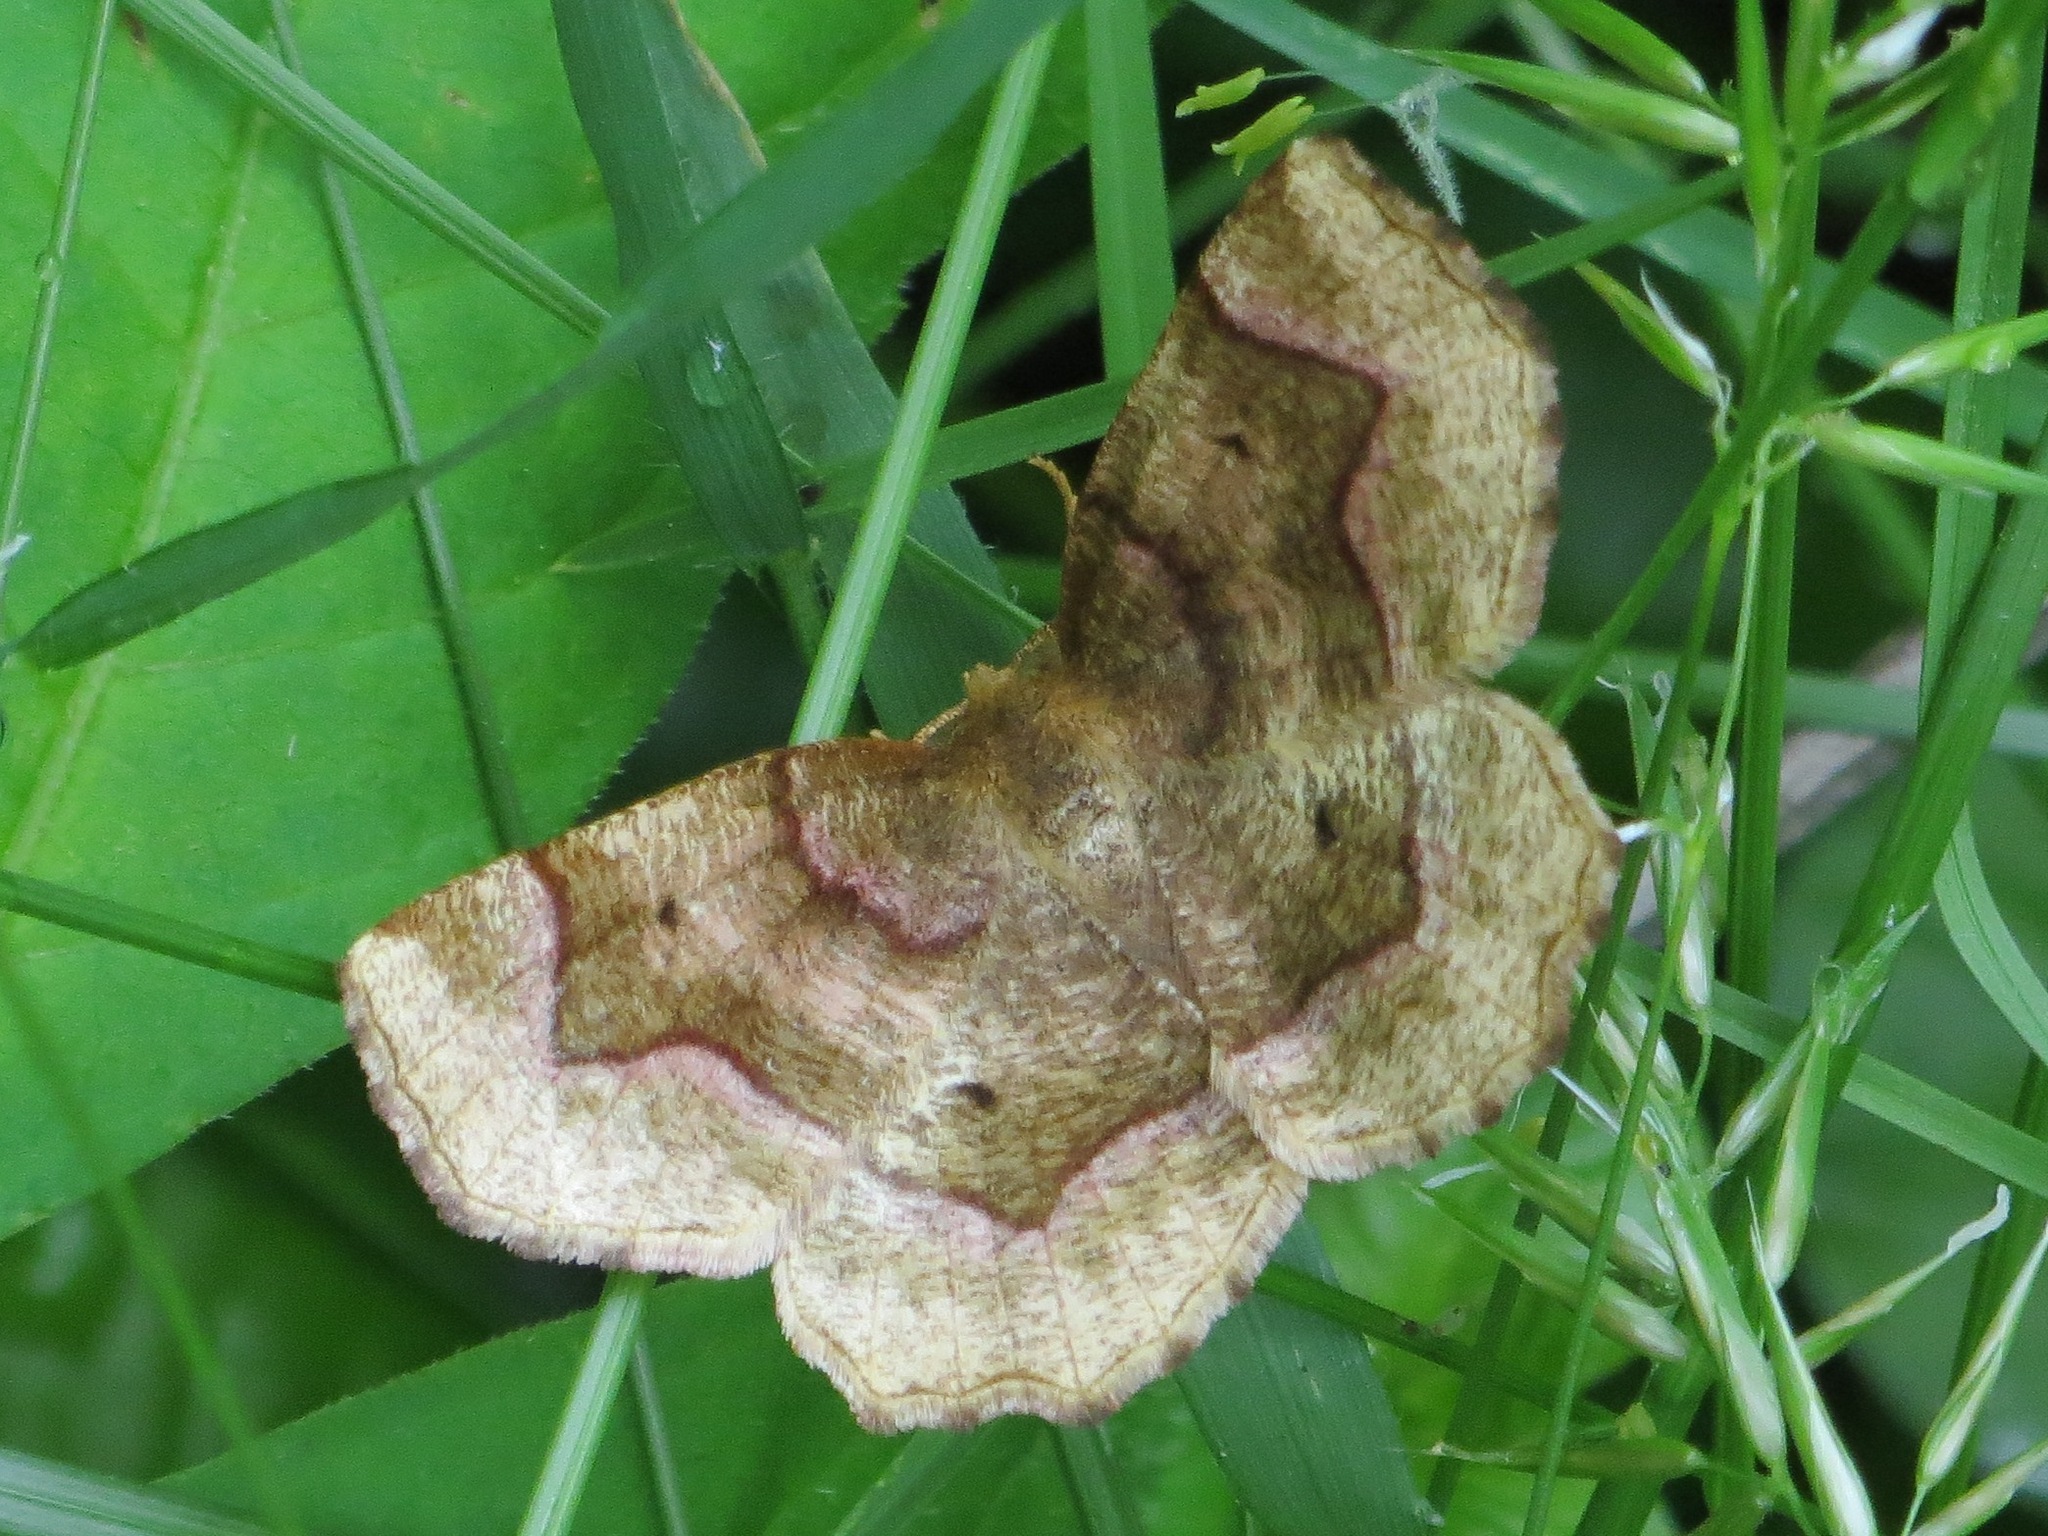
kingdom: Animalia
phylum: Arthropoda
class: Insecta
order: Lepidoptera
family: Geometridae
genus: Metarranthis
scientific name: Metarranthis refractaria
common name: Refracted metarranthis moth
